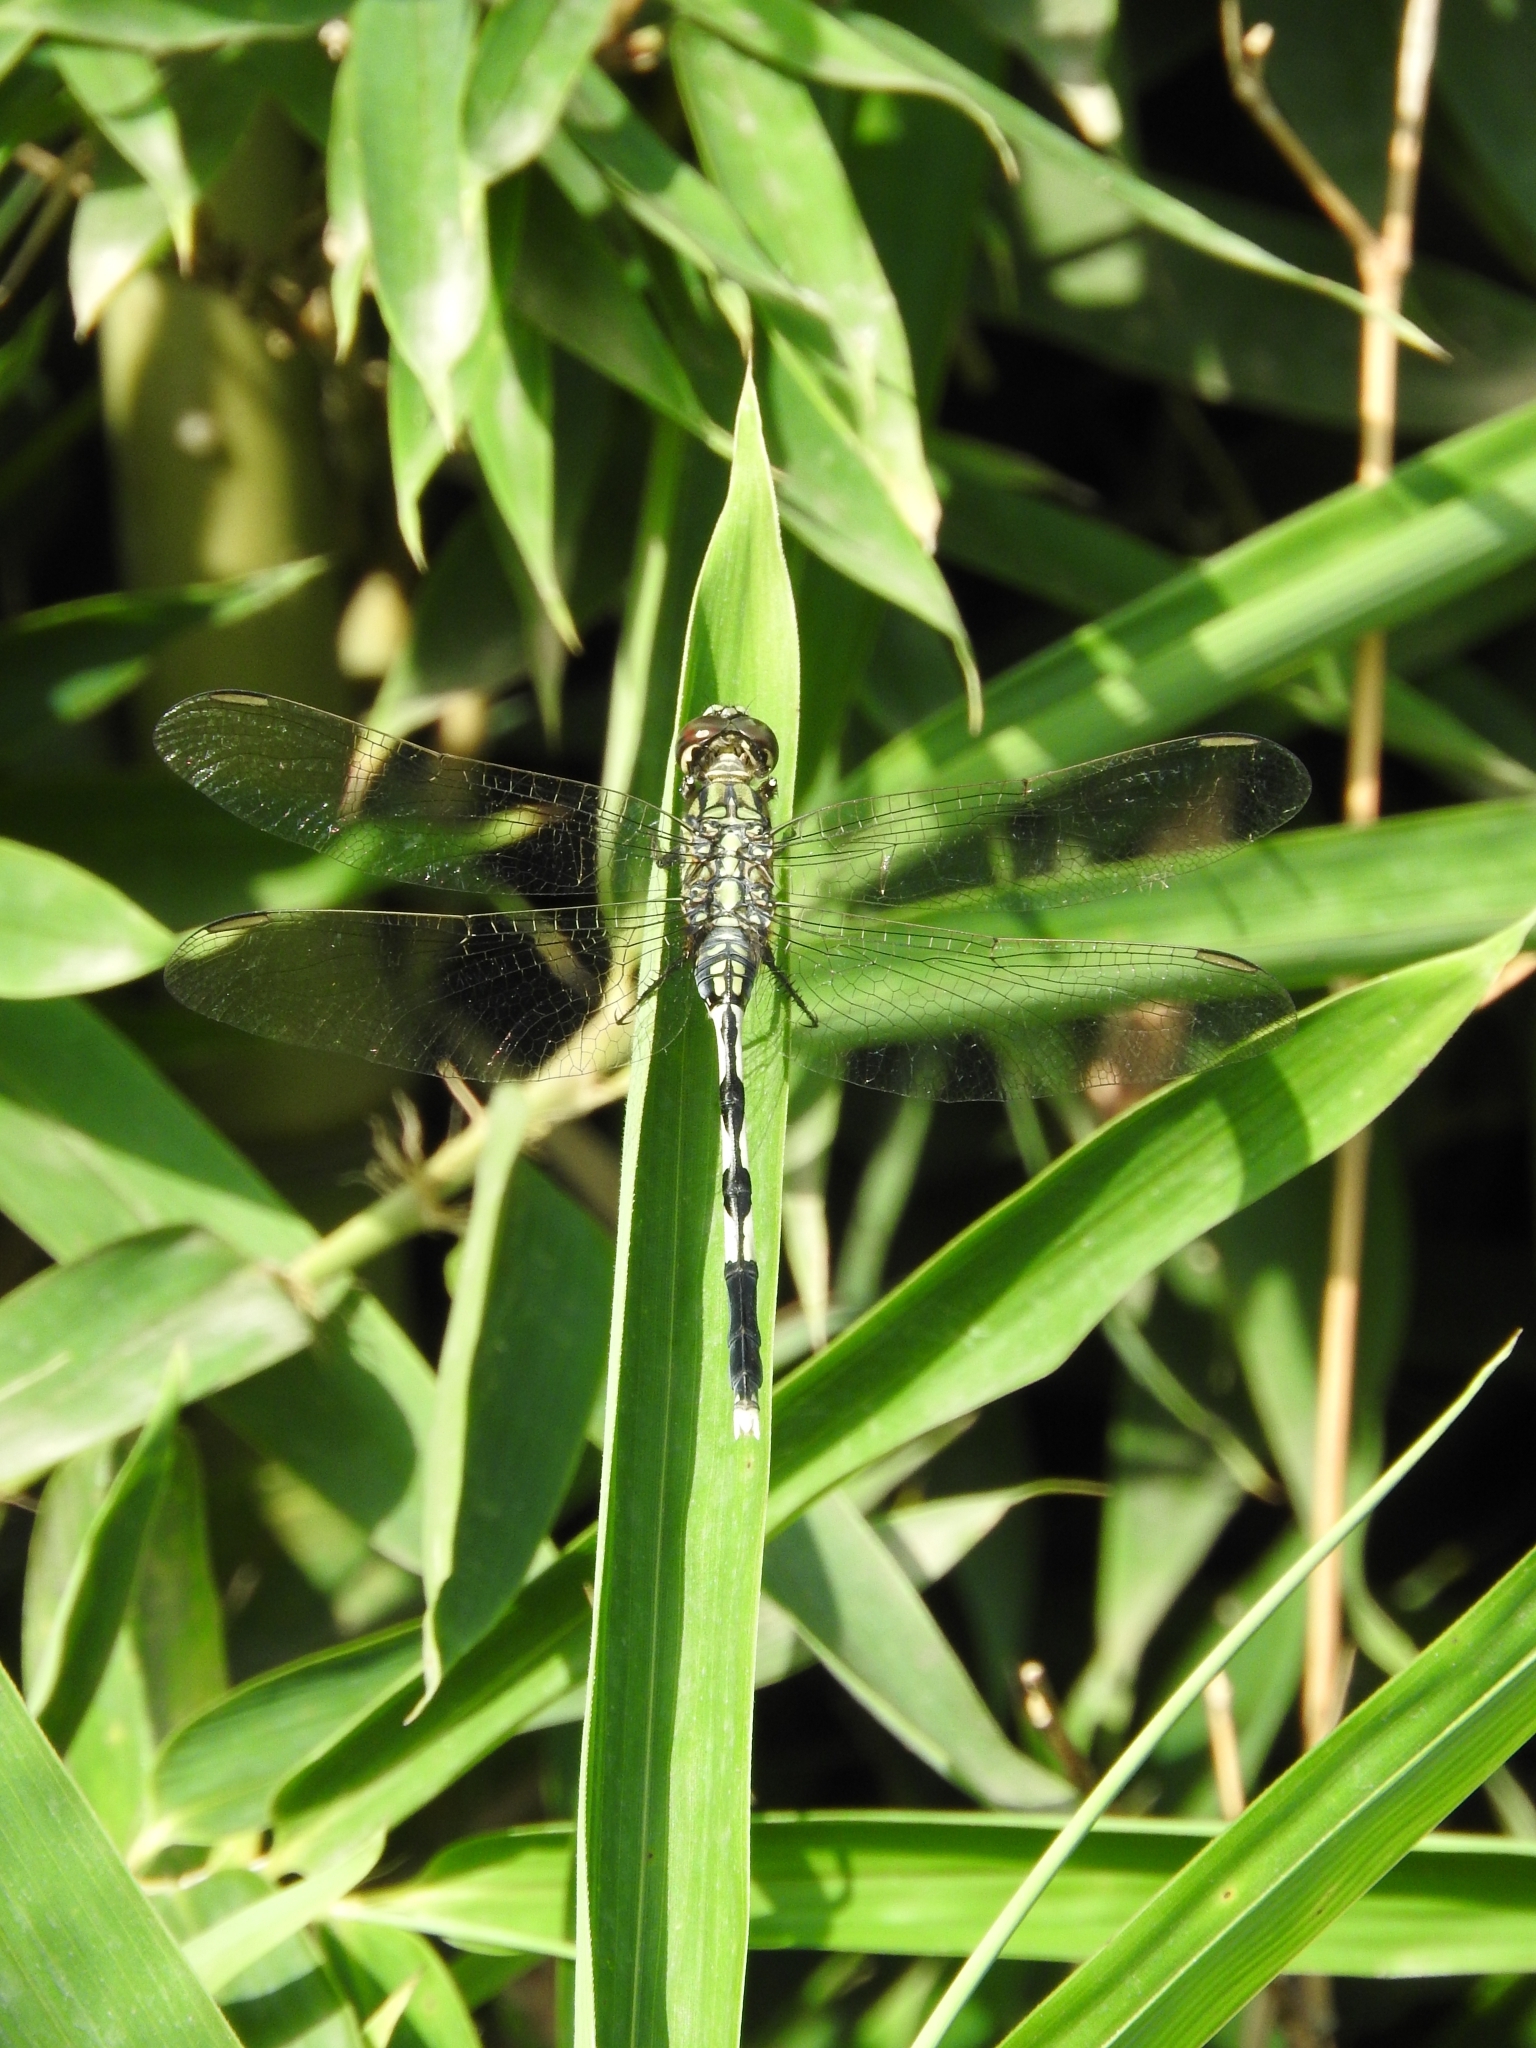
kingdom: Animalia
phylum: Arthropoda
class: Insecta
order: Odonata
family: Libellulidae
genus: Orthetrum
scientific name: Orthetrum sabina
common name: Slender skimmer
